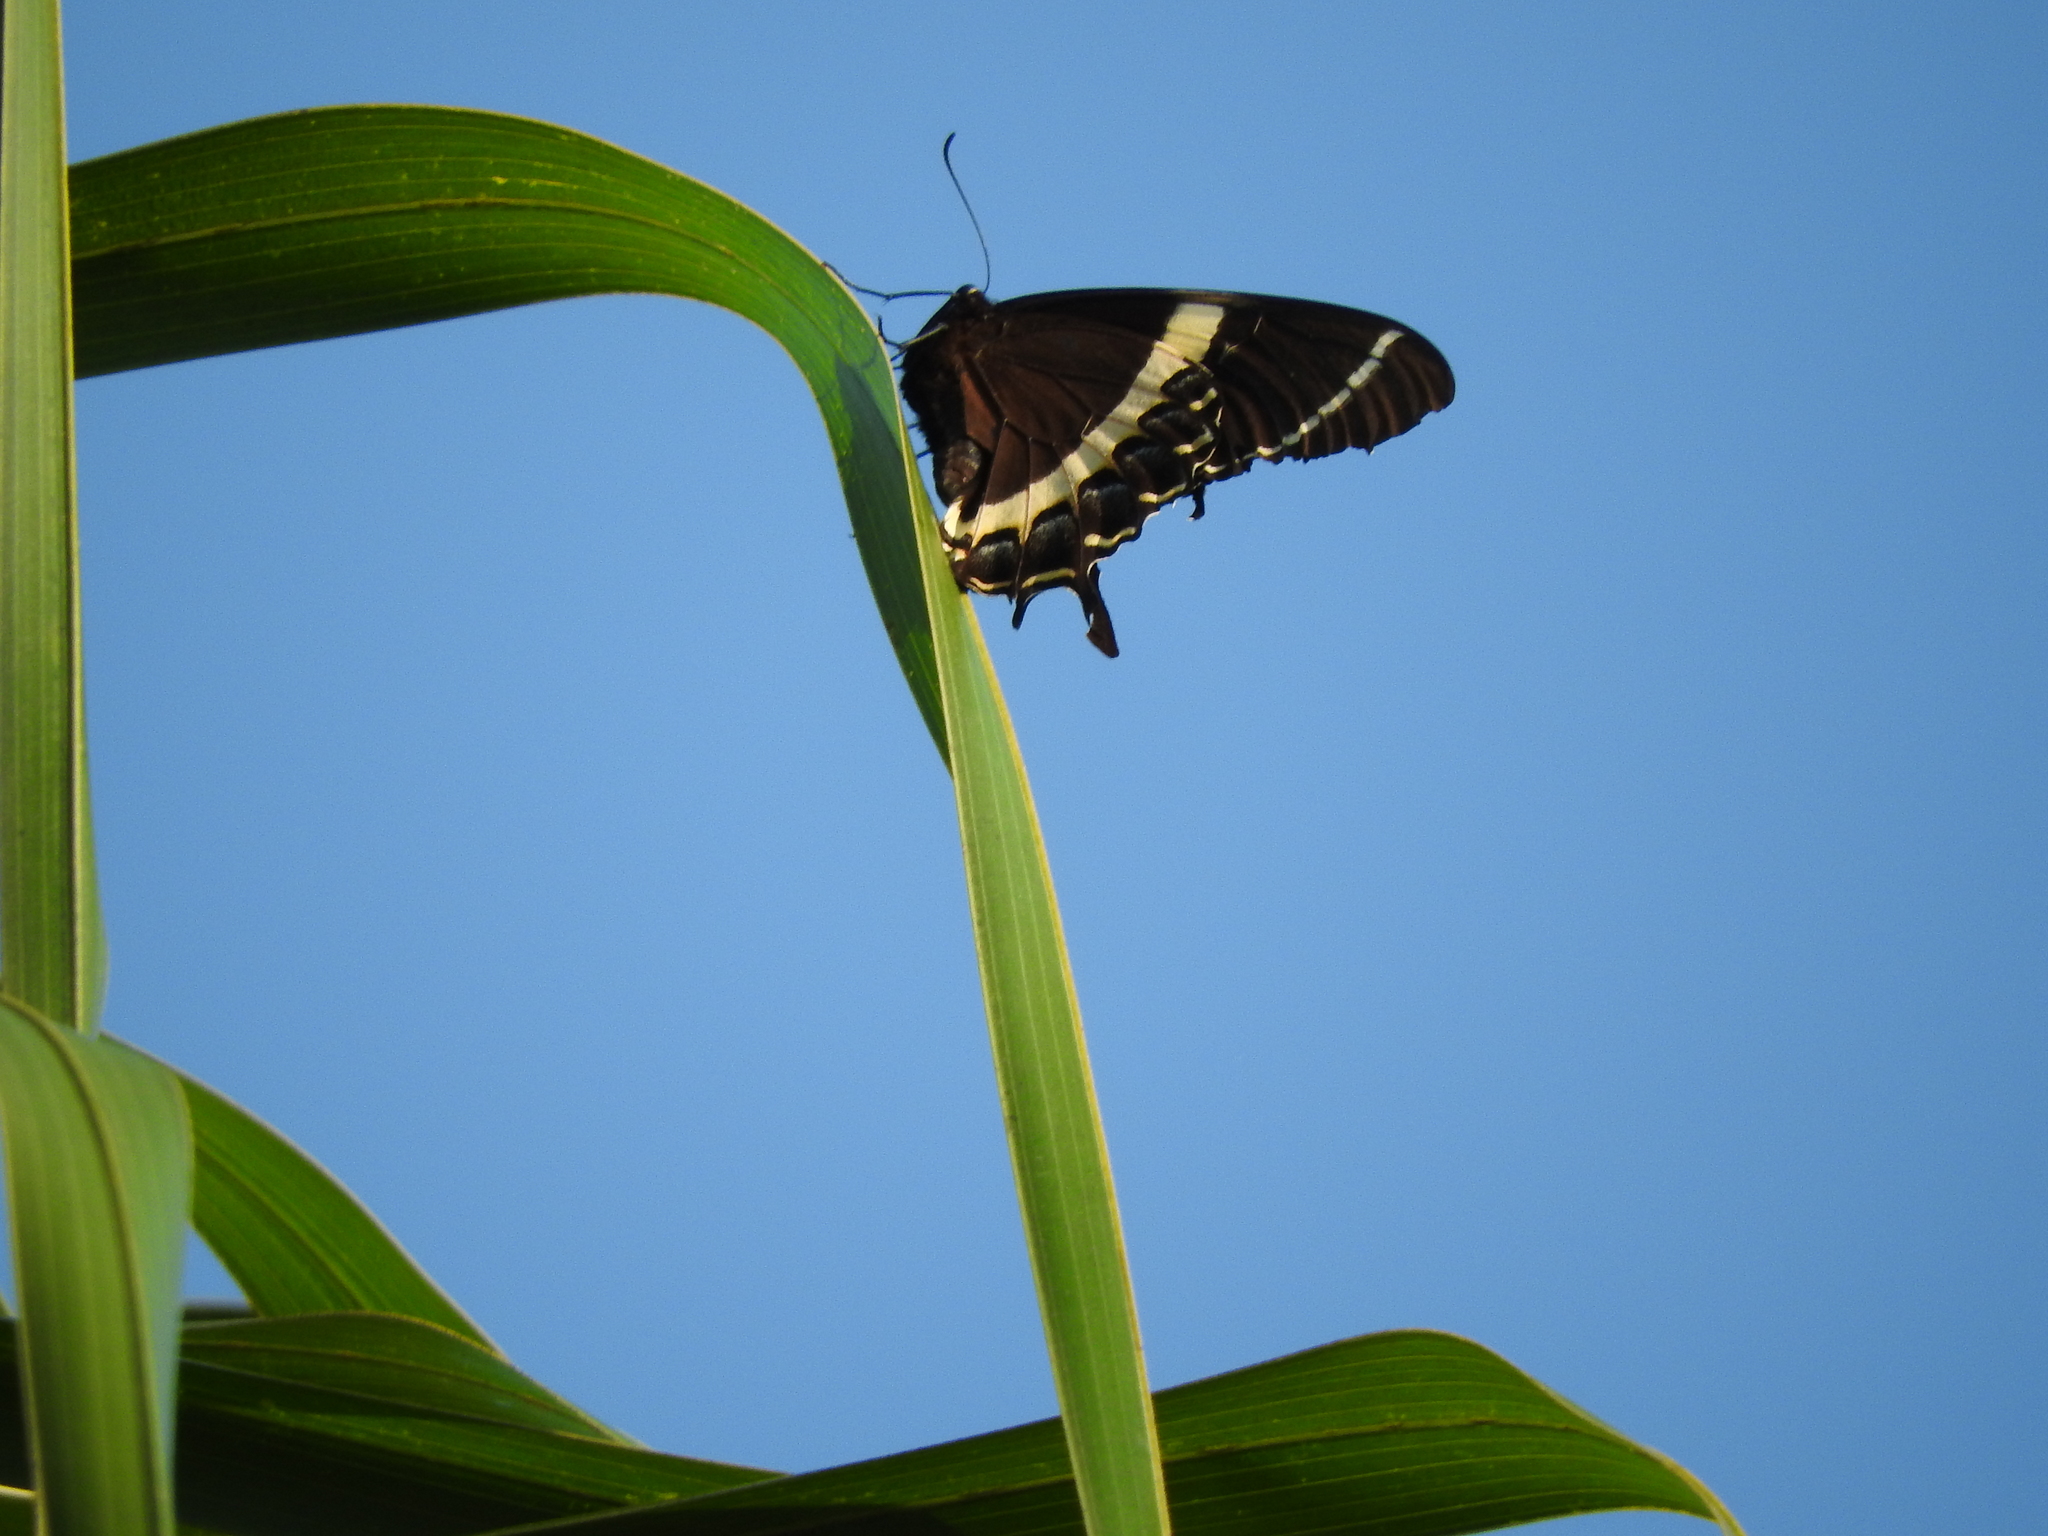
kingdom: Animalia
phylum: Arthropoda
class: Insecta
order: Lepidoptera
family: Papilionidae
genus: Papilio
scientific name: Papilio garamas
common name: Magnificent swallowtail
